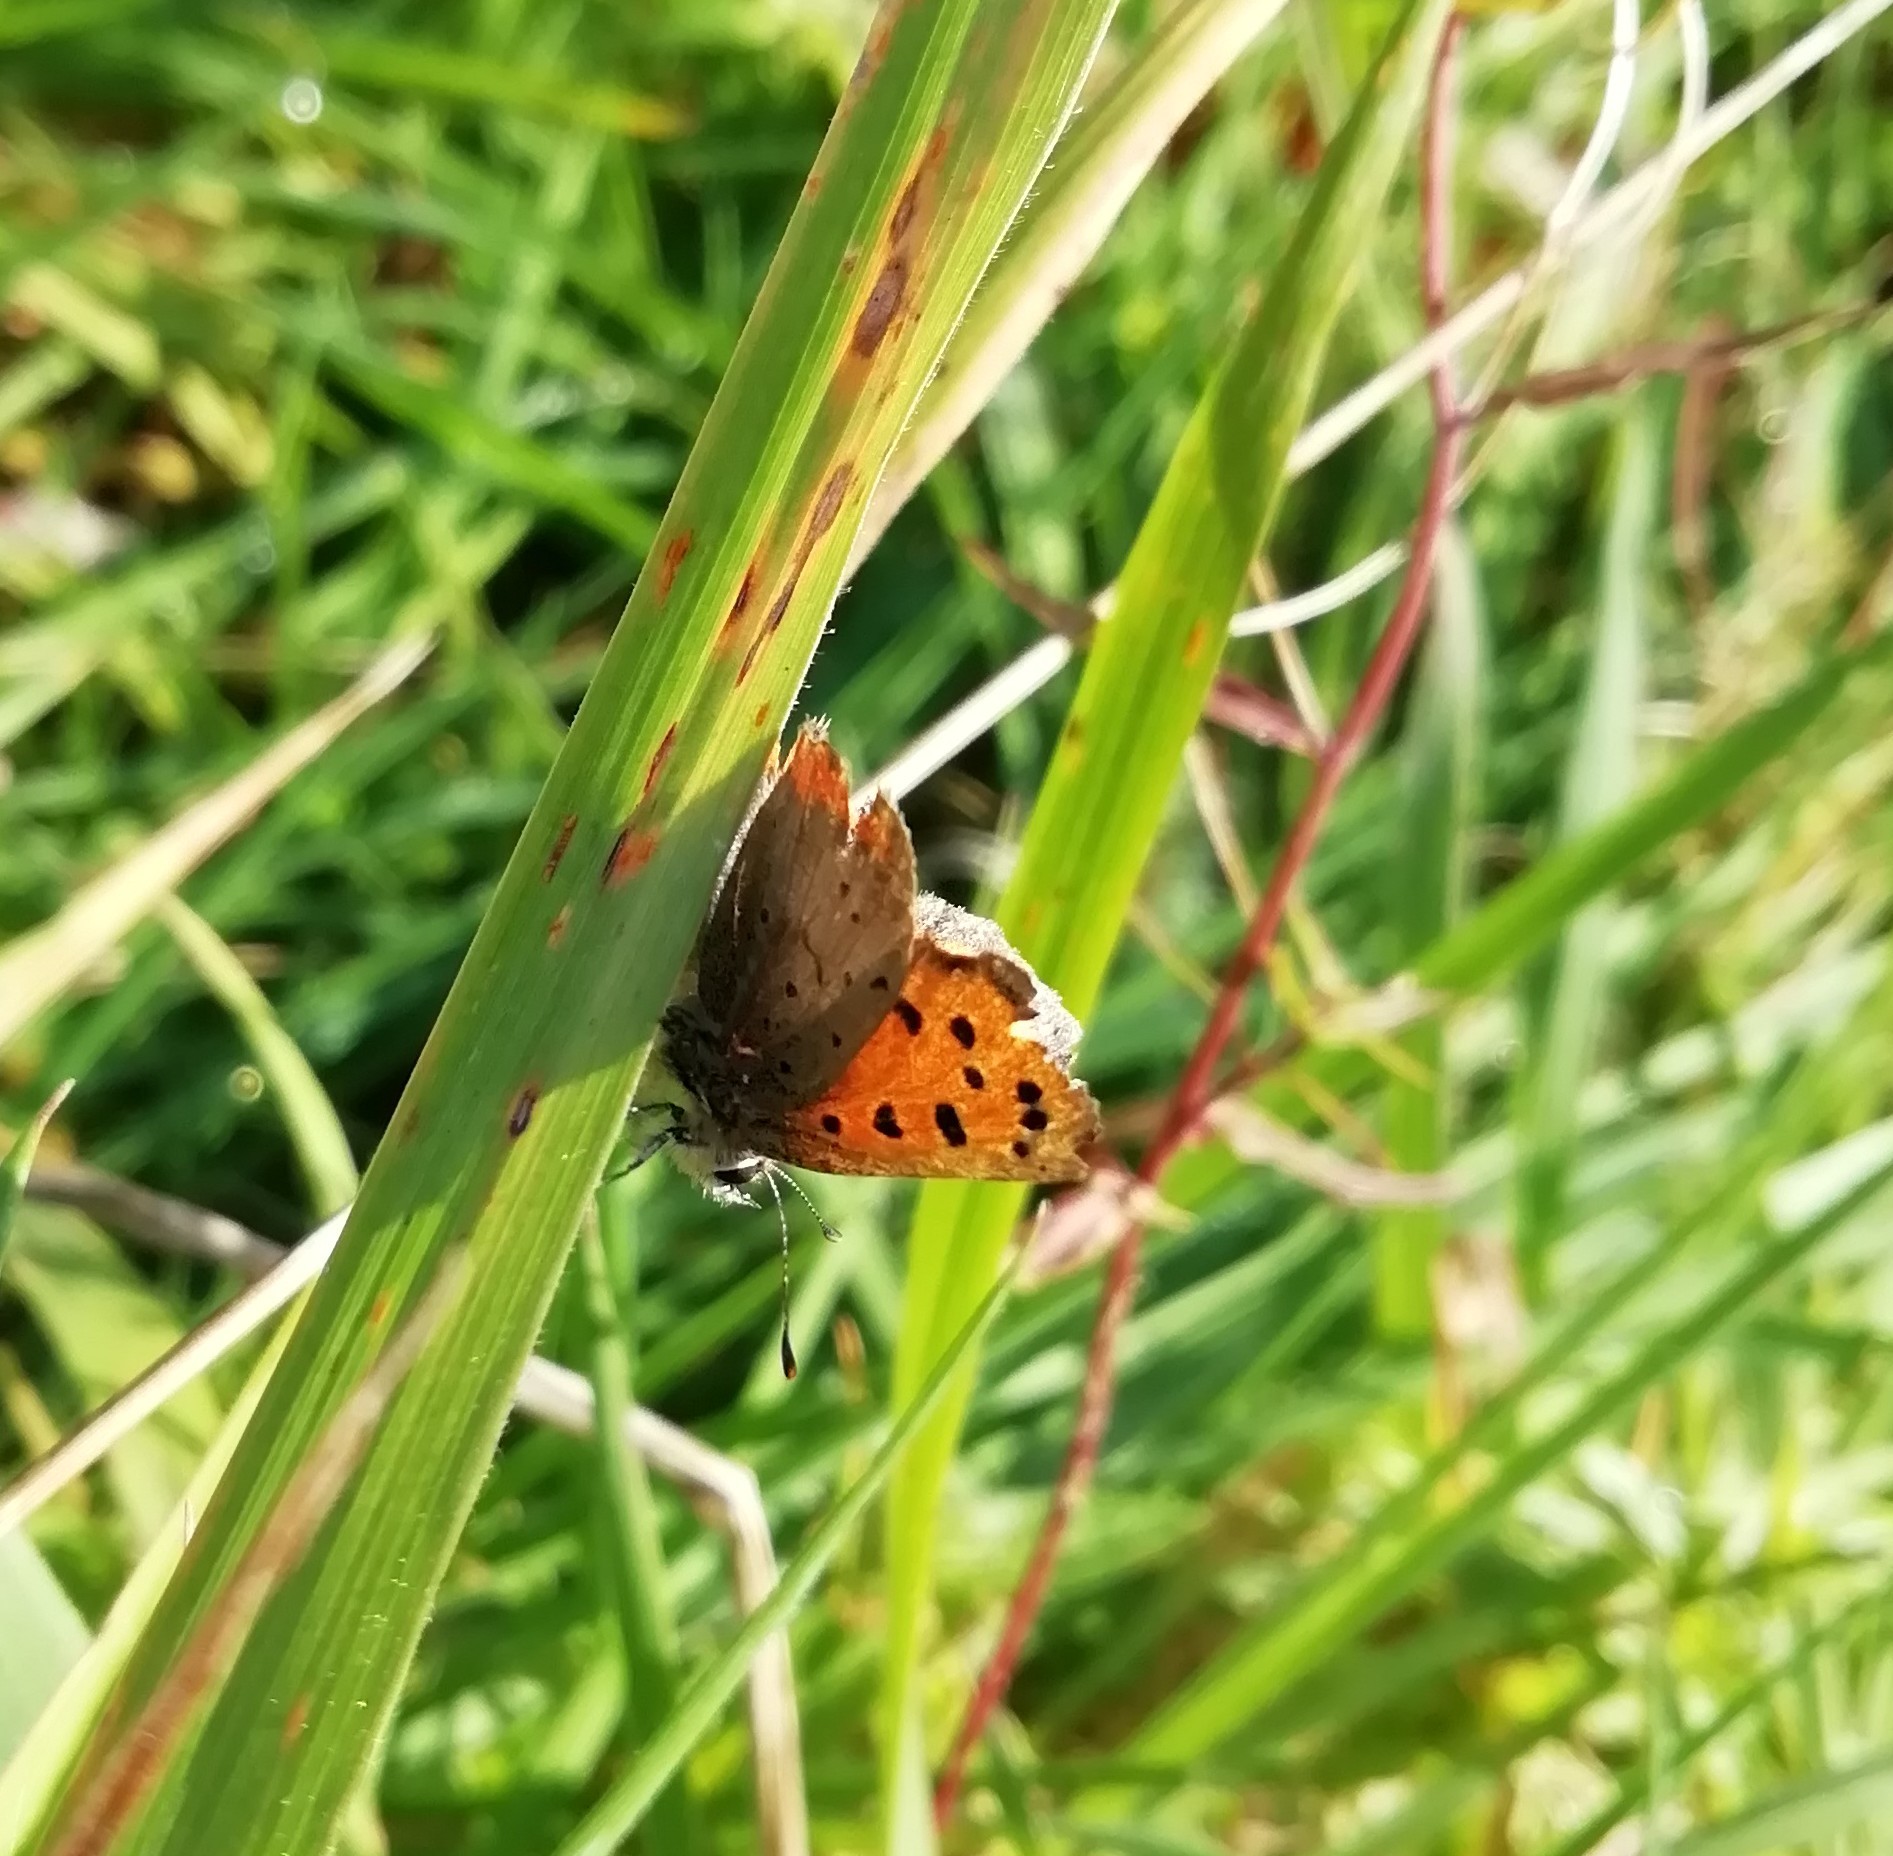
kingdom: Animalia
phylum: Arthropoda
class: Insecta
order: Lepidoptera
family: Lycaenidae
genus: Lycaena
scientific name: Lycaena phlaeas
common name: Small copper
